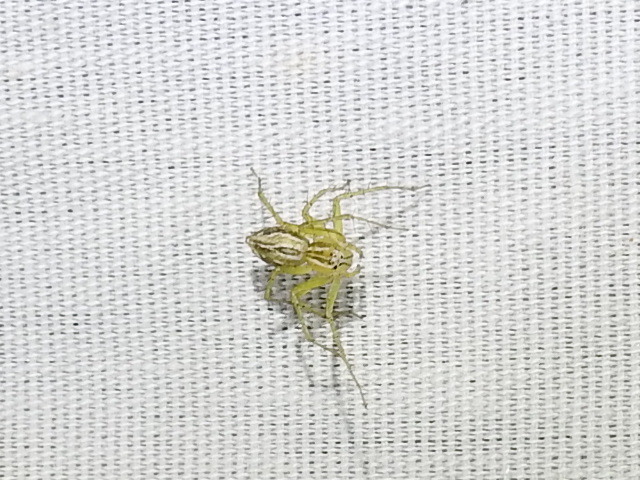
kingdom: Animalia
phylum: Arthropoda
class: Arachnida
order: Araneae
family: Oxyopidae
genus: Oxyopes
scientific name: Oxyopes salticus
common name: Lynx spiders
